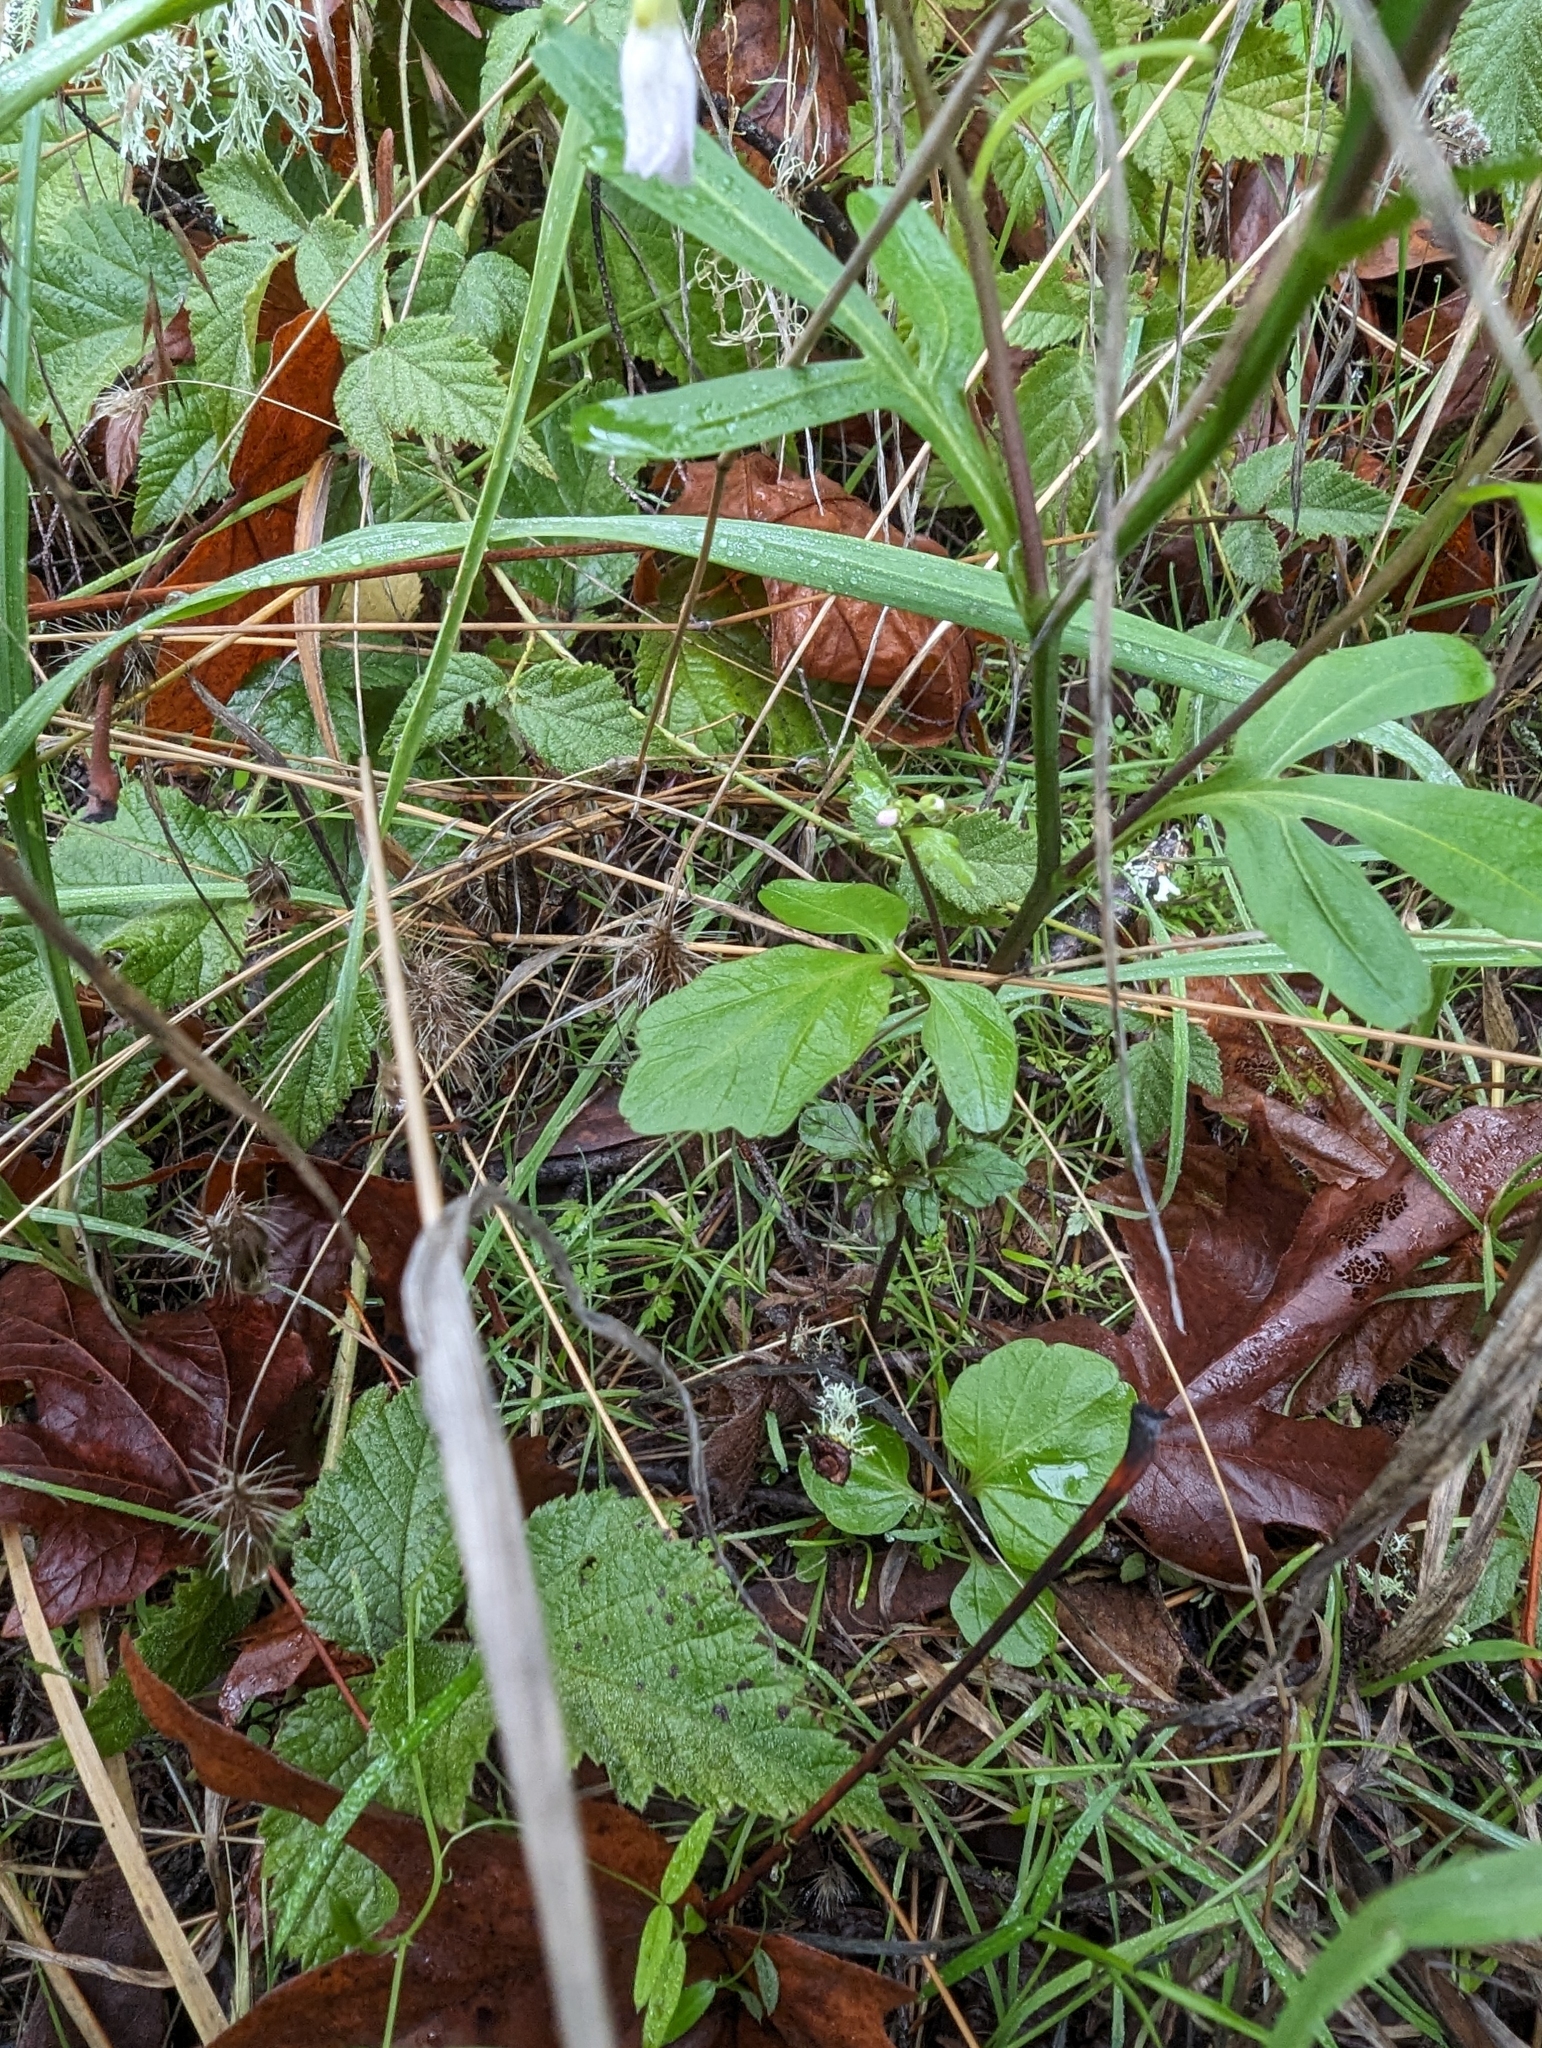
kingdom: Plantae
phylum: Tracheophyta
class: Magnoliopsida
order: Brassicales
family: Brassicaceae
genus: Cardamine
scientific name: Cardamine californica
